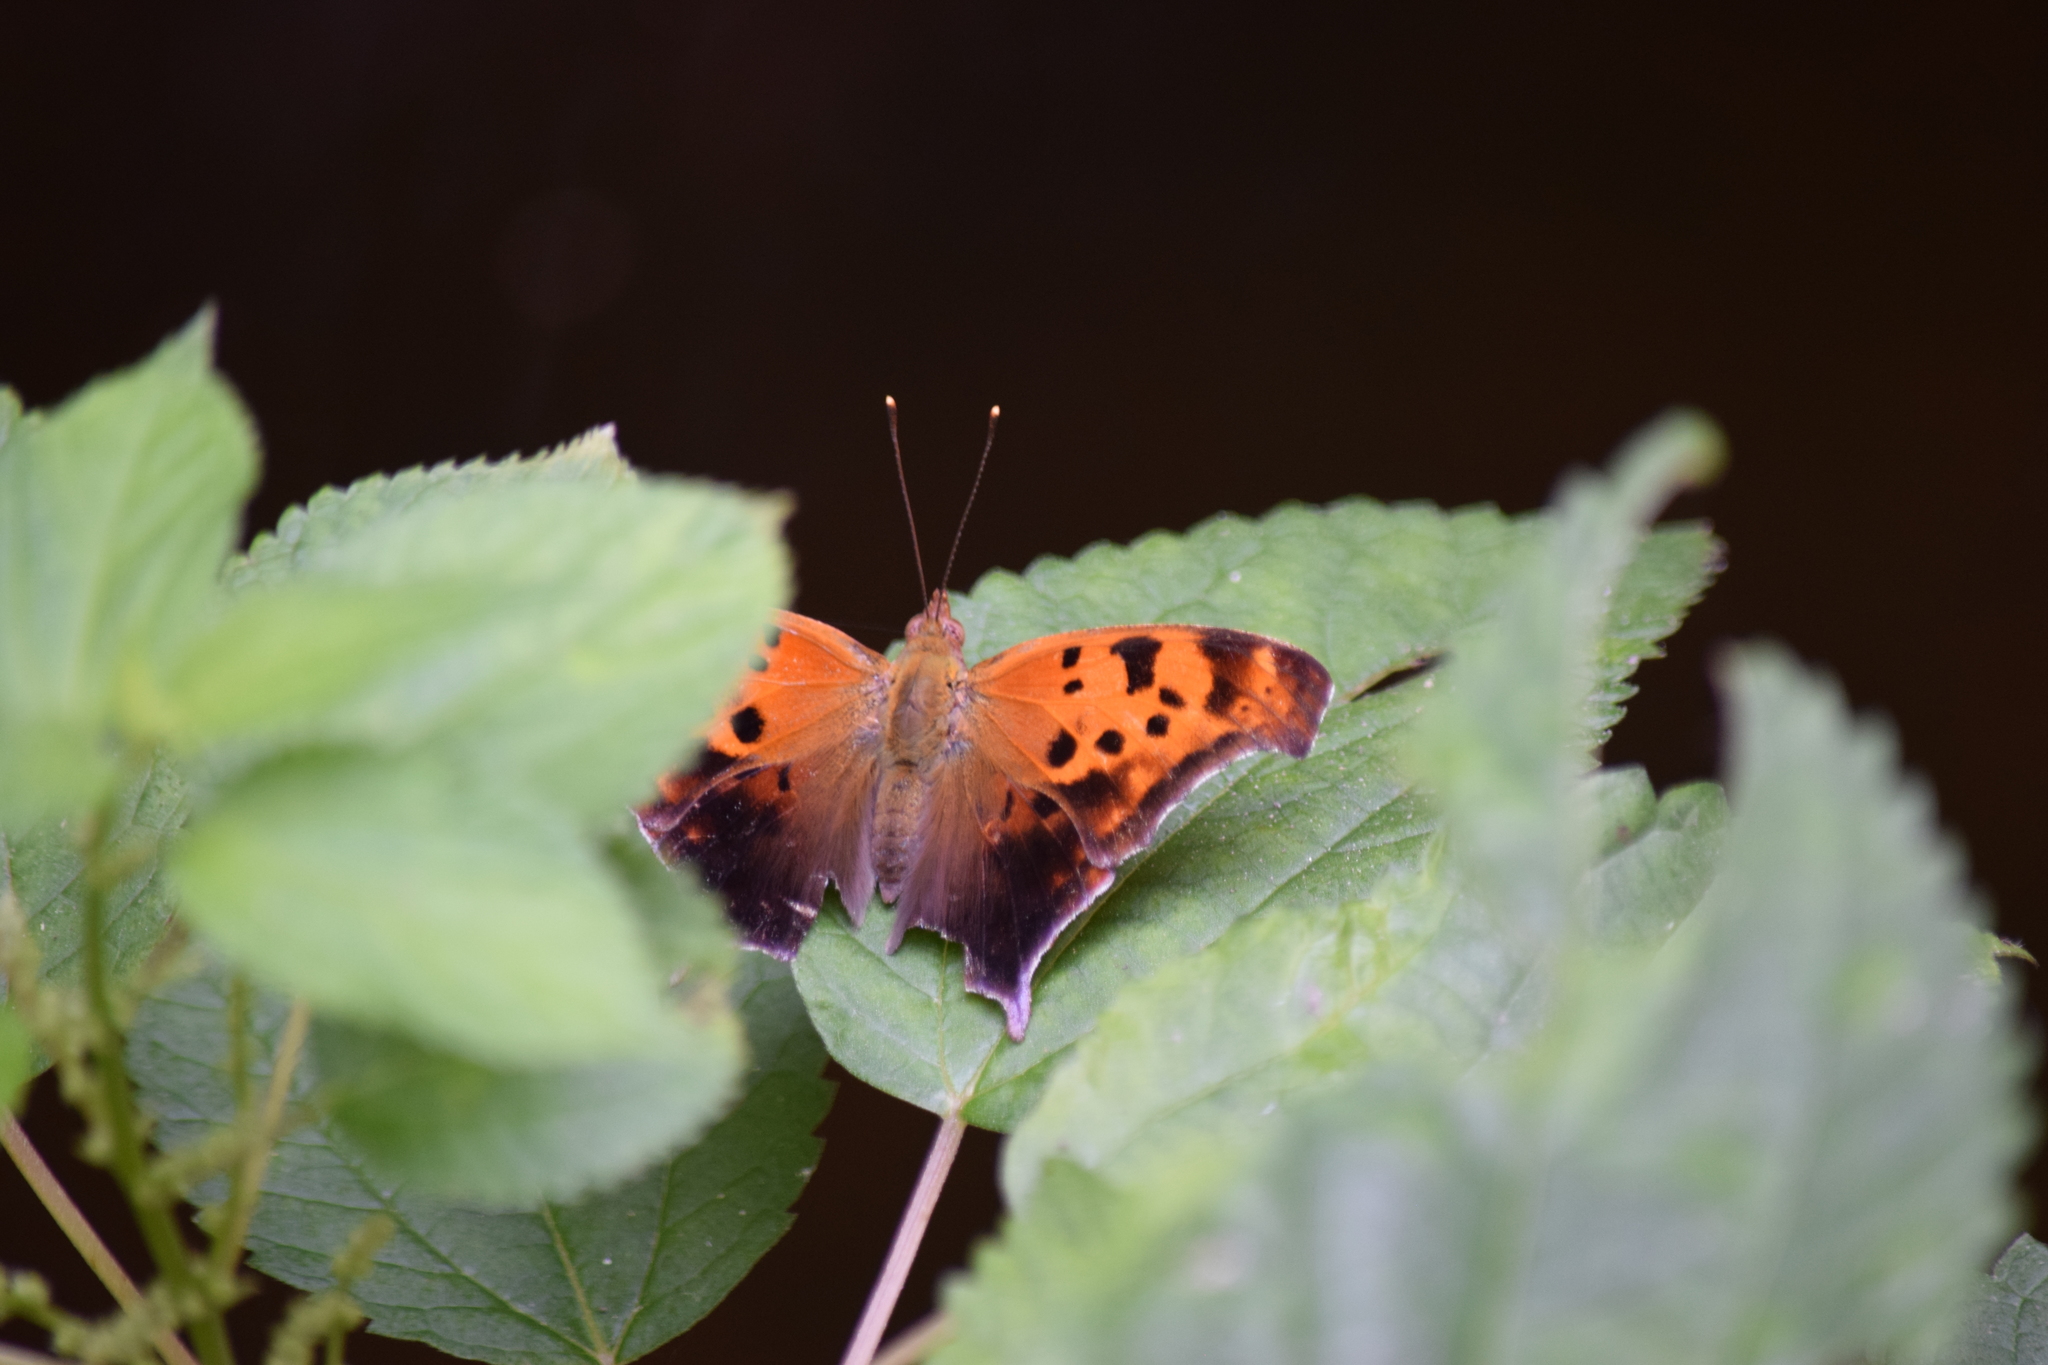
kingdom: Animalia
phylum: Arthropoda
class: Insecta
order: Lepidoptera
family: Nymphalidae
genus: Polygonia
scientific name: Polygonia interrogationis
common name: Question mark
